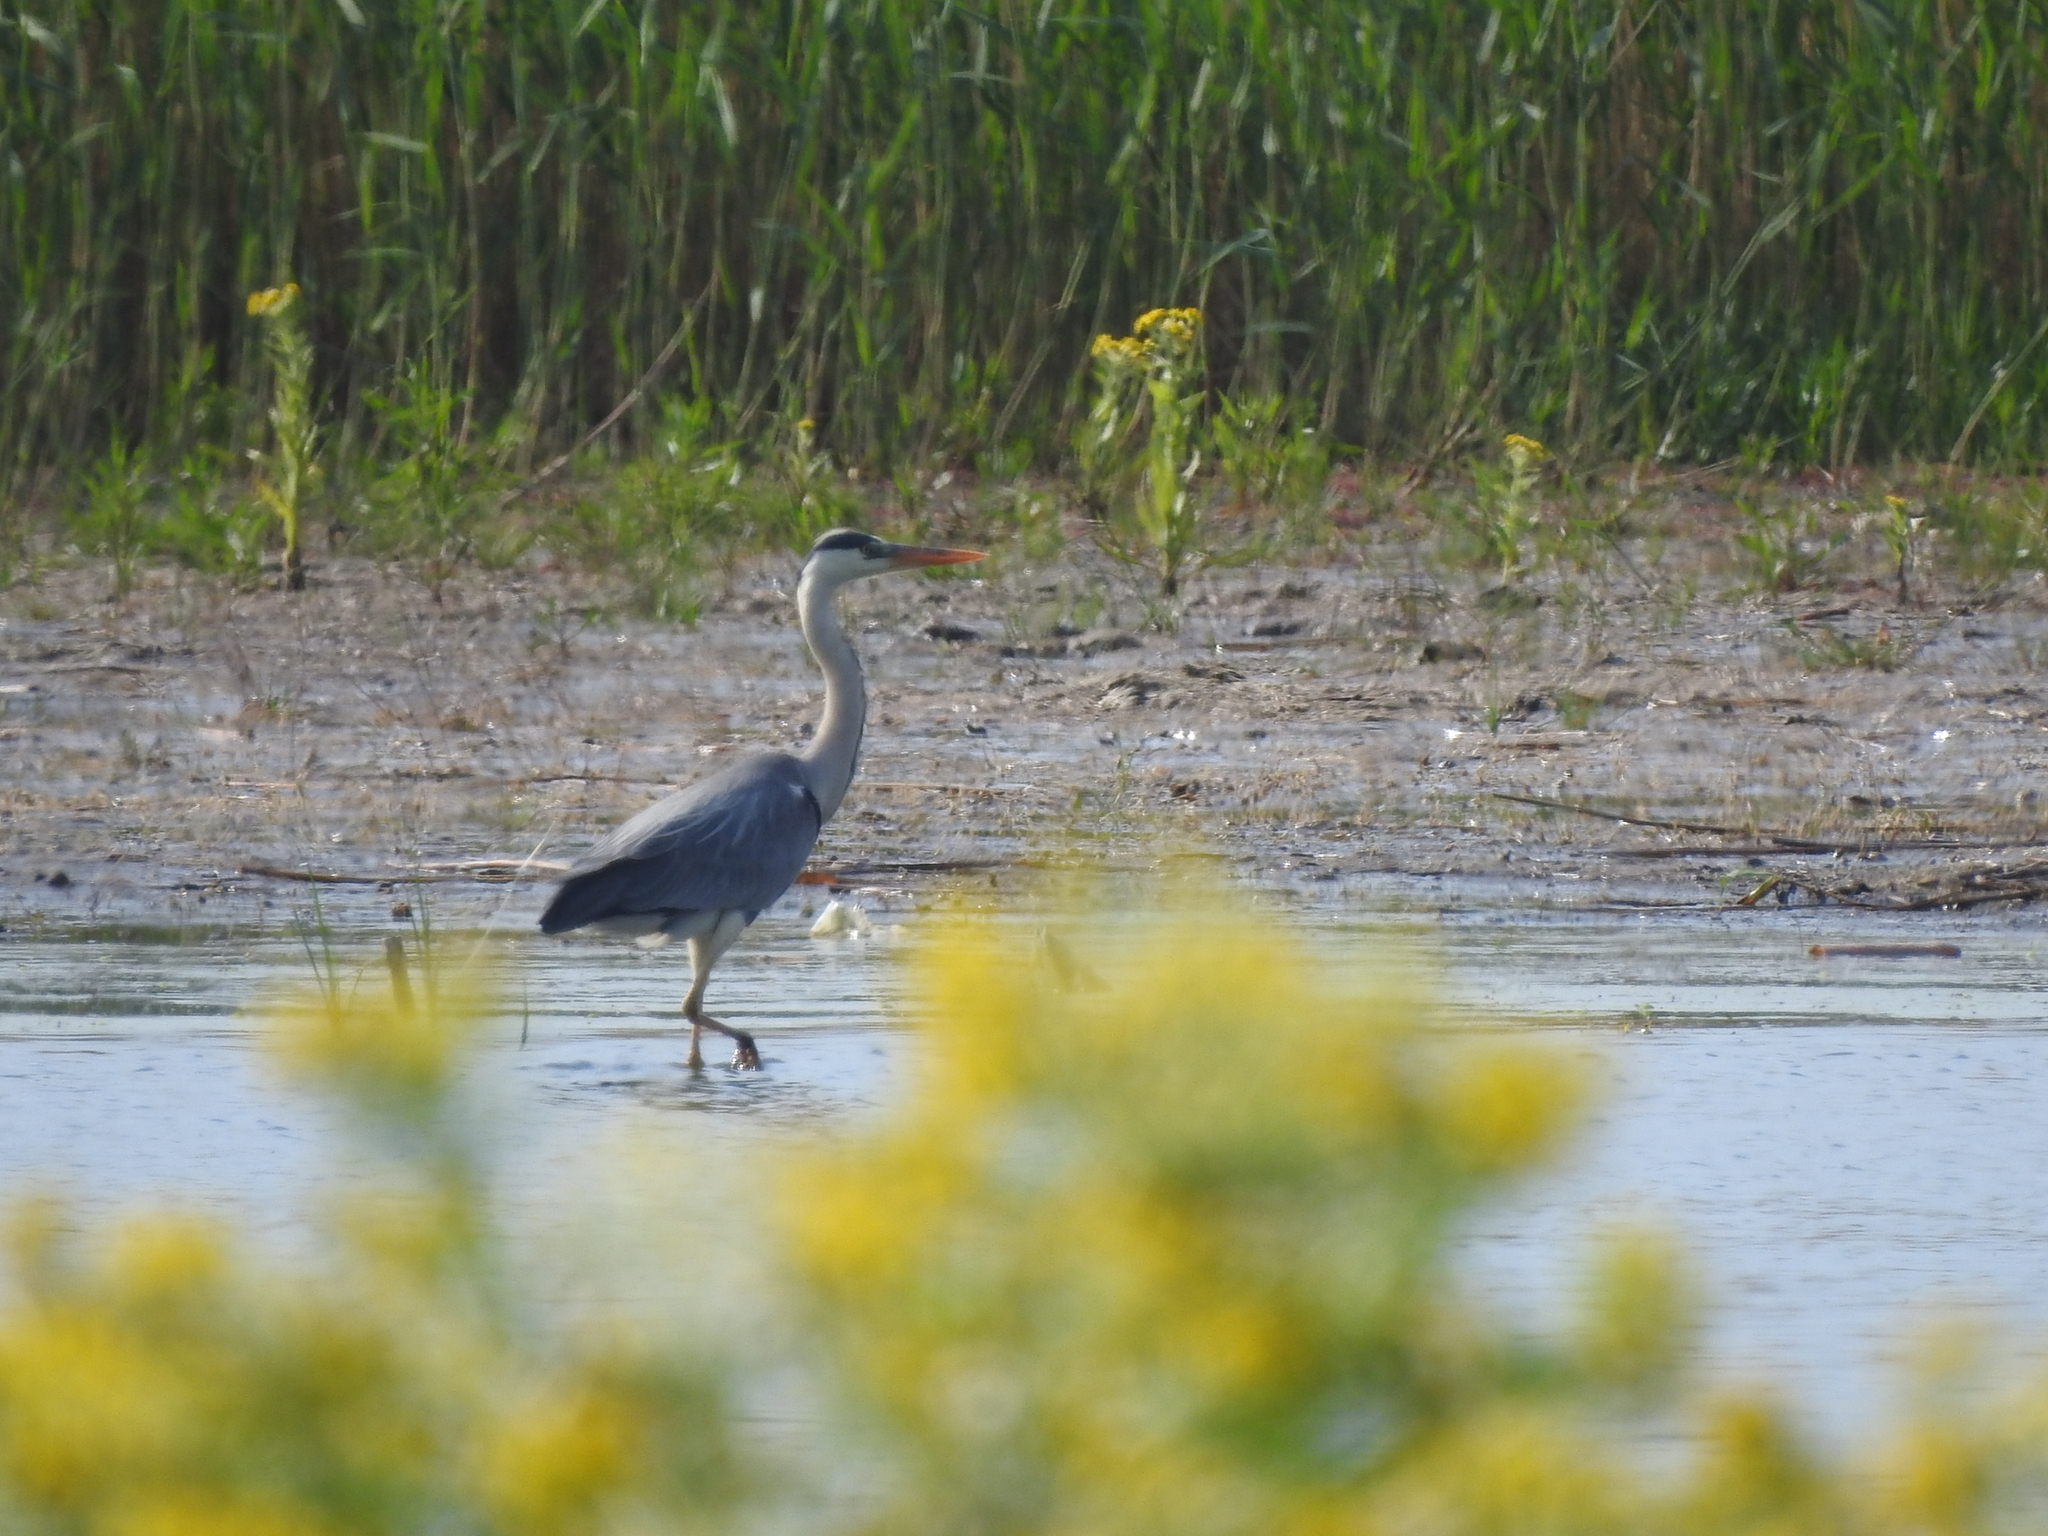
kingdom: Animalia
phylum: Chordata
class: Aves
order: Pelecaniformes
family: Ardeidae
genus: Ardea
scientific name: Ardea cinerea
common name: Grey heron
